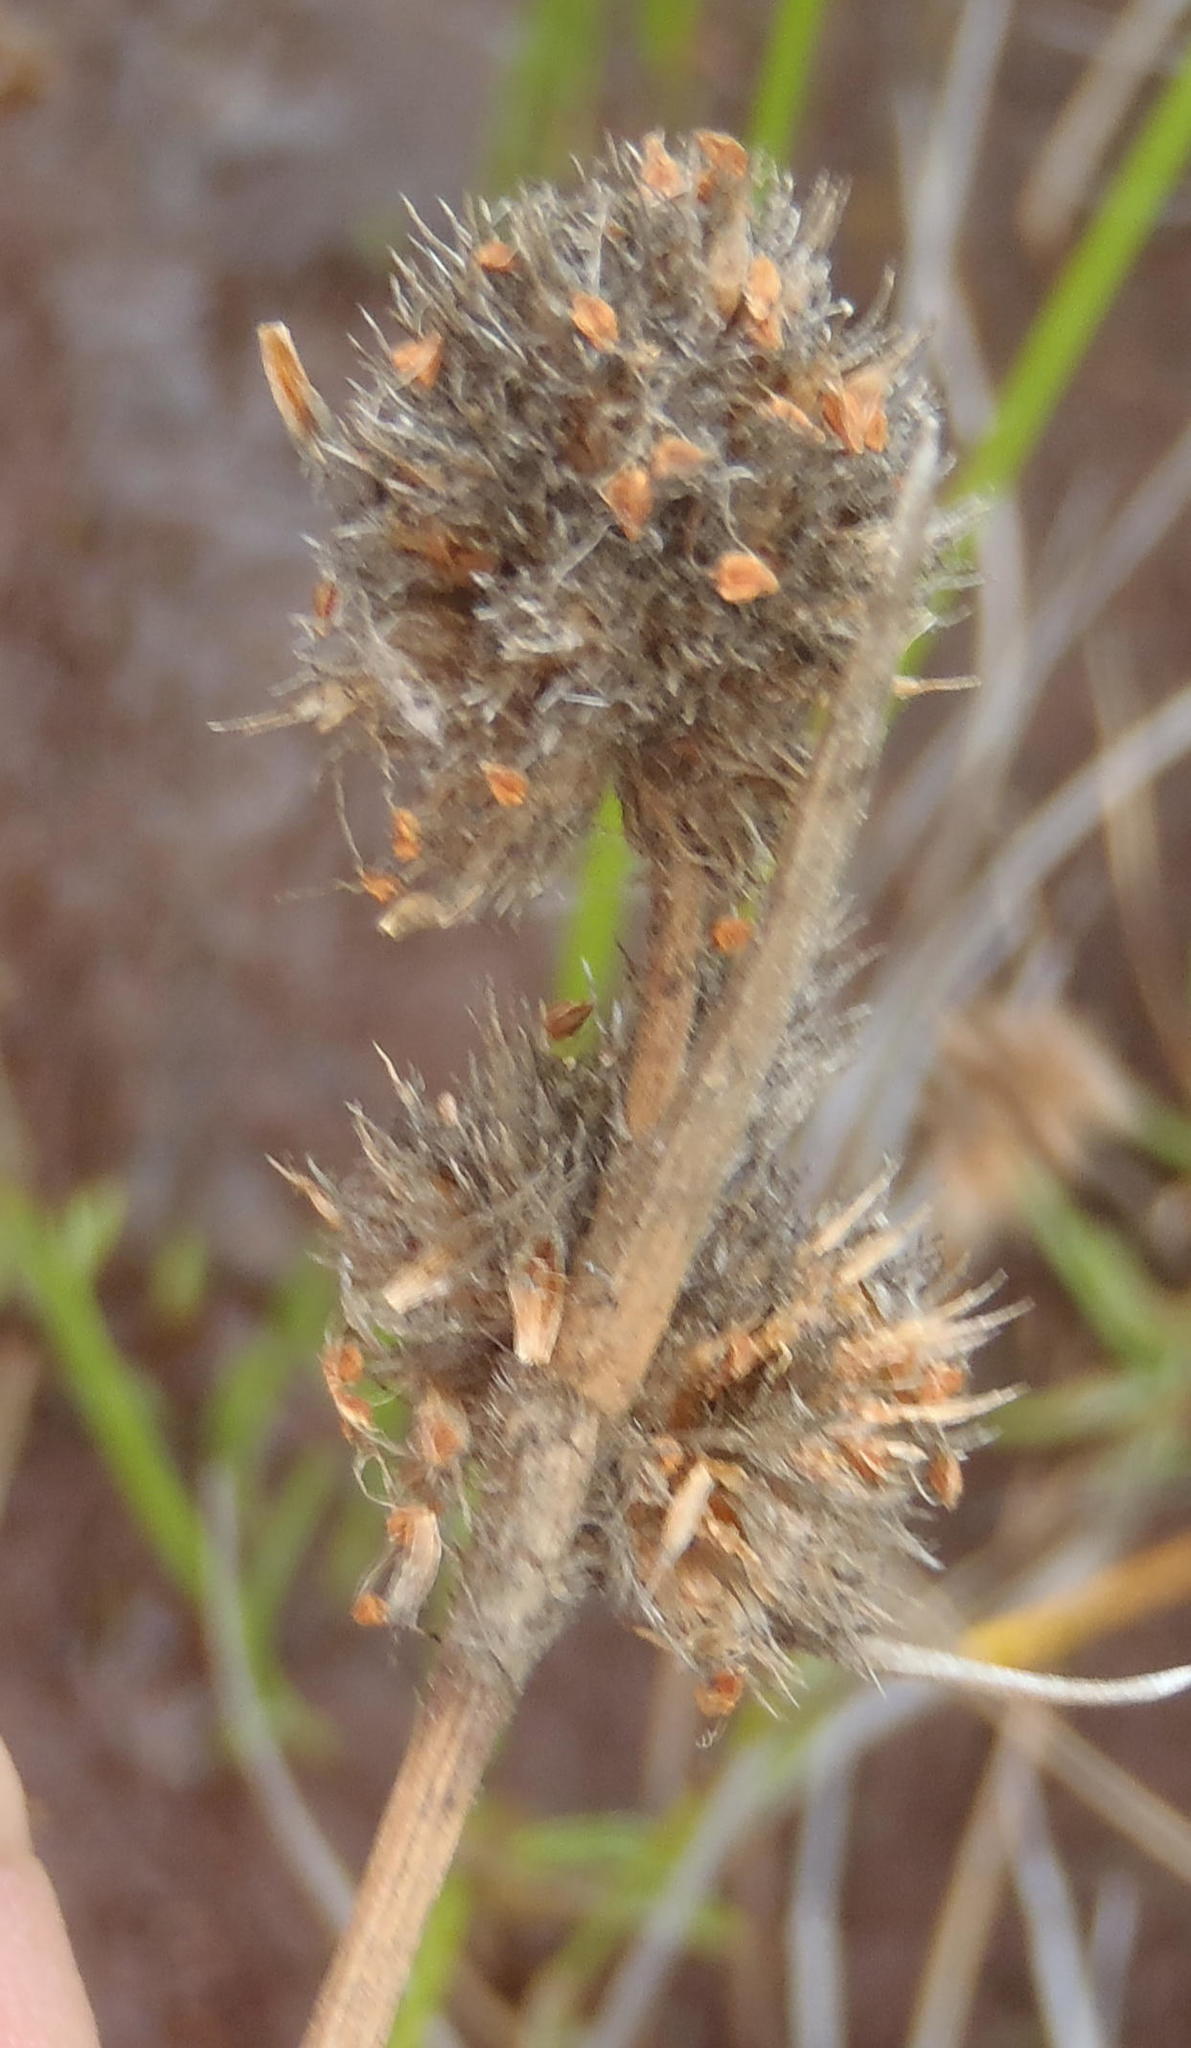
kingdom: Plantae
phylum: Tracheophyta
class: Liliopsida
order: Poales
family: Cyperaceae
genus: Fuirena
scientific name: Fuirena hirsuta
